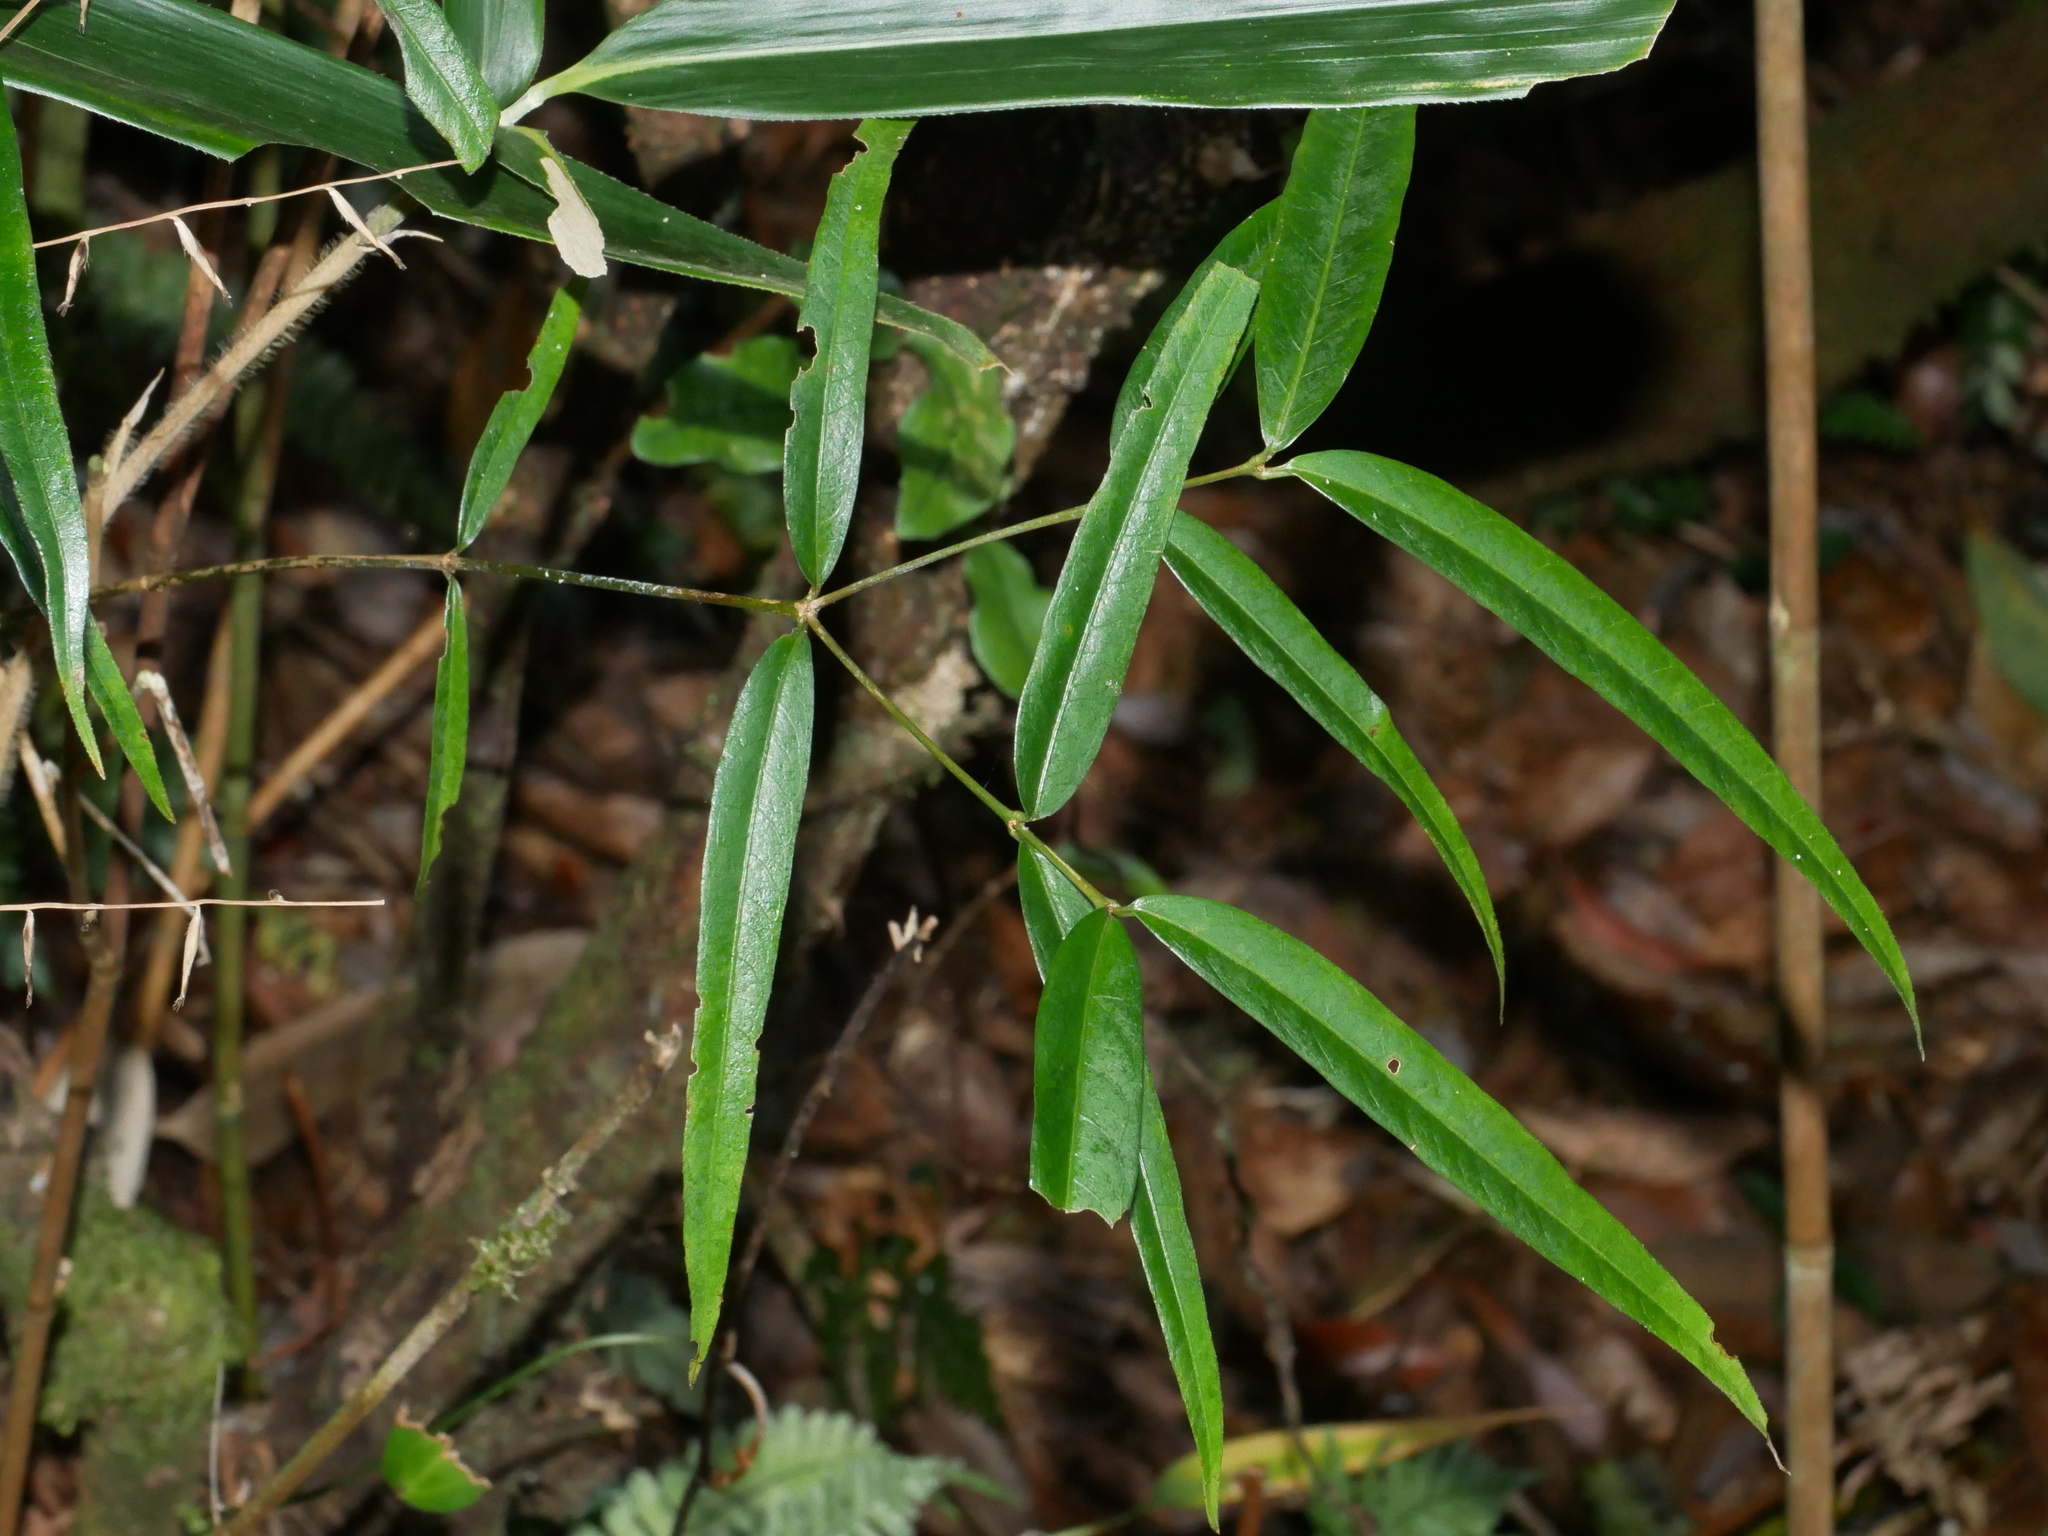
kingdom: Plantae
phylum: Tracheophyta
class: Magnoliopsida
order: Gentianales
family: Rubiaceae
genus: Damnacanthus
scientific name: Damnacanthus angustifolius
